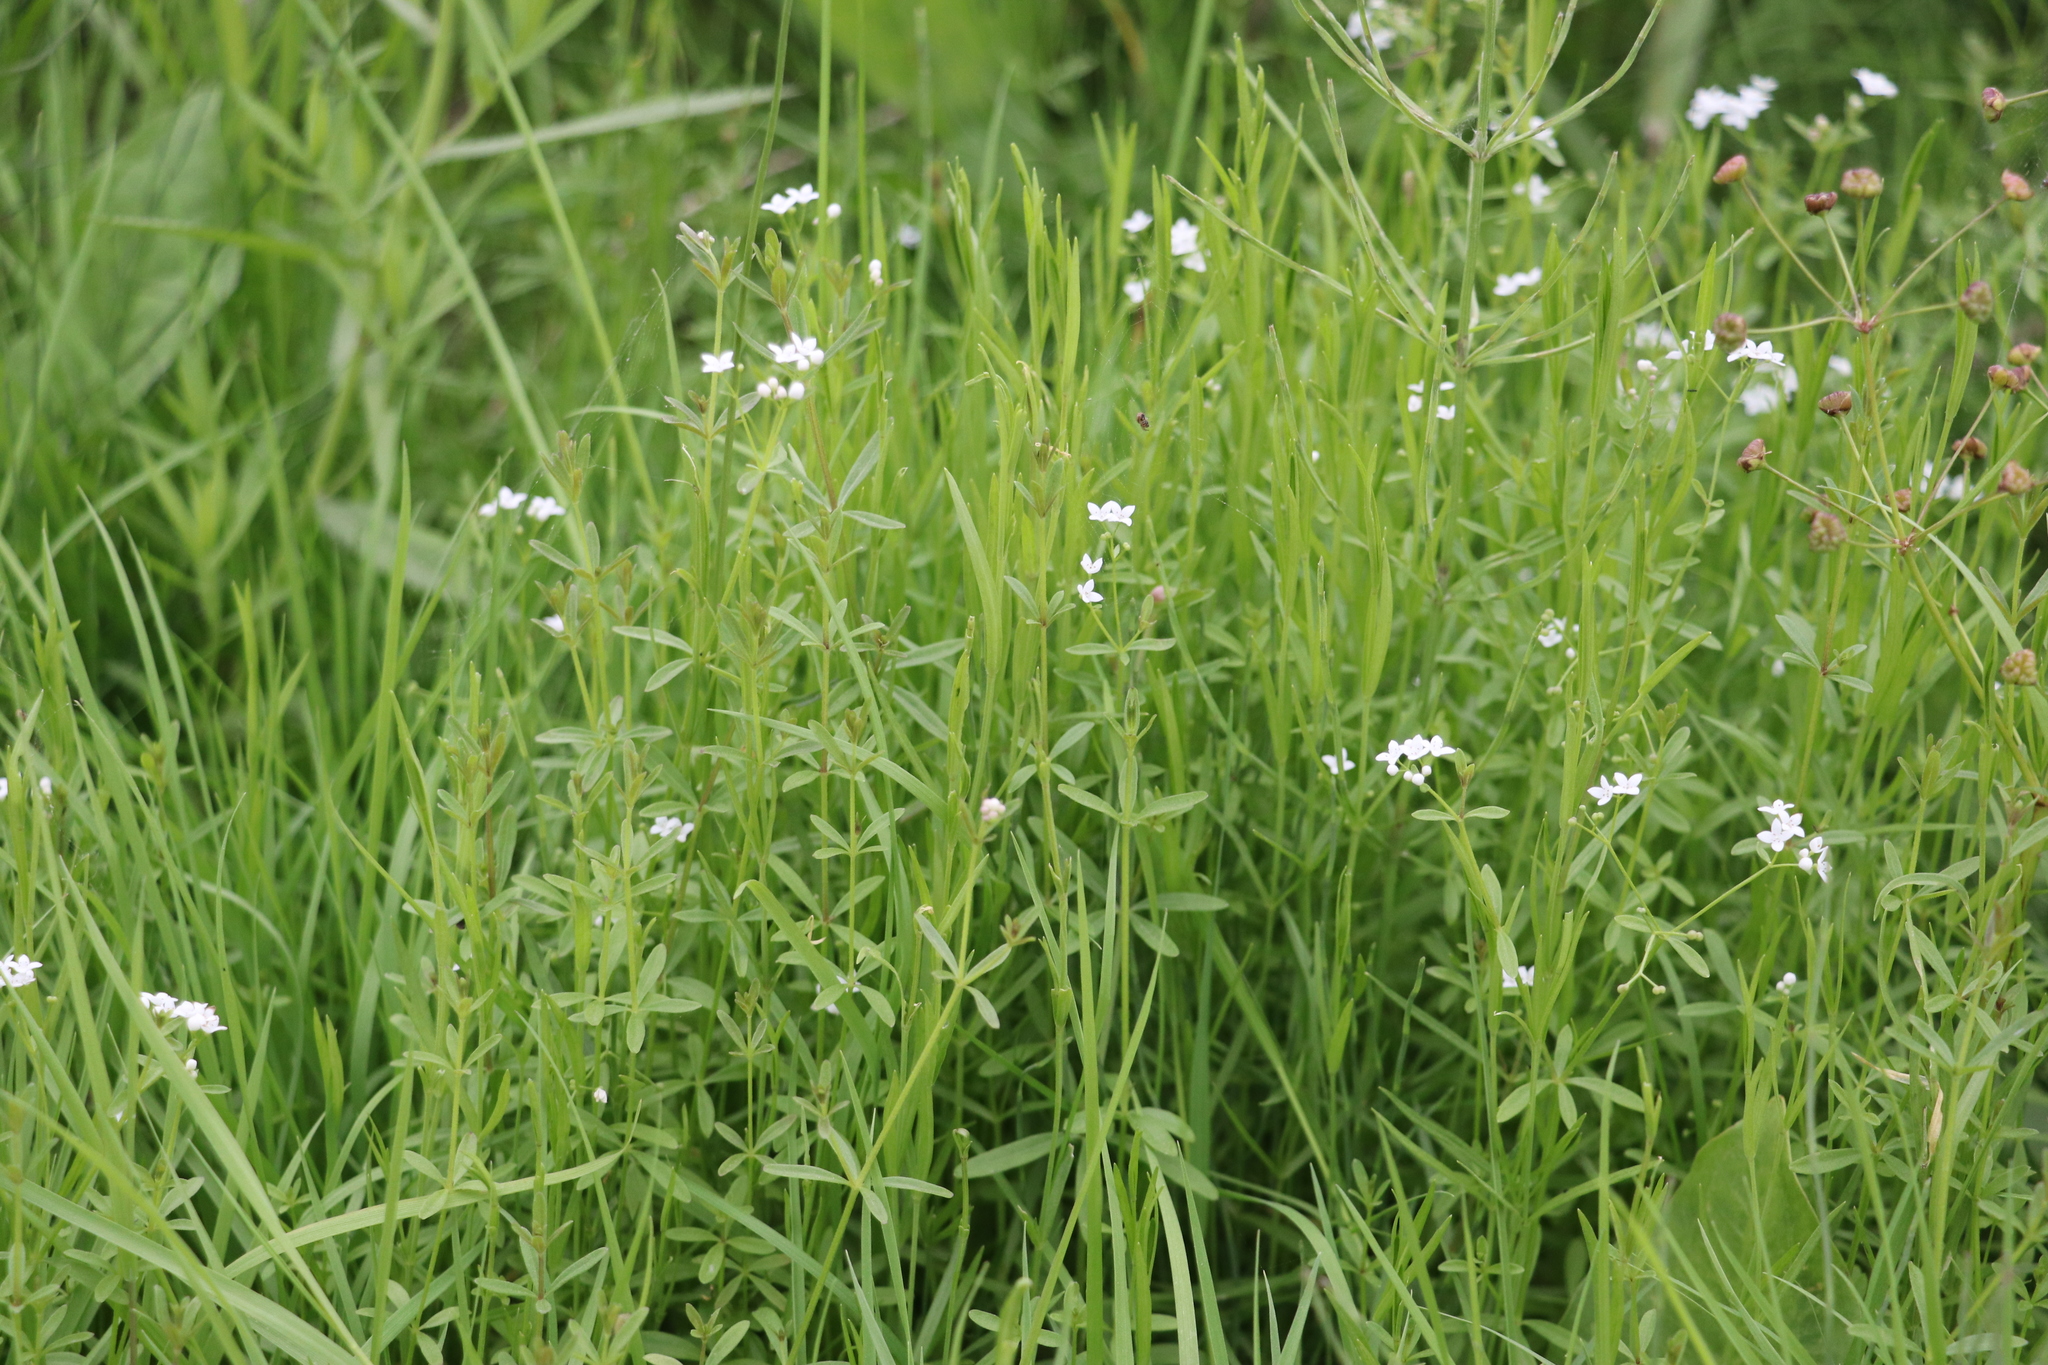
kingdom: Plantae
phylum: Tracheophyta
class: Magnoliopsida
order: Gentianales
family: Rubiaceae
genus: Galium
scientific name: Galium palustre
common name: Common marsh-bedstraw
